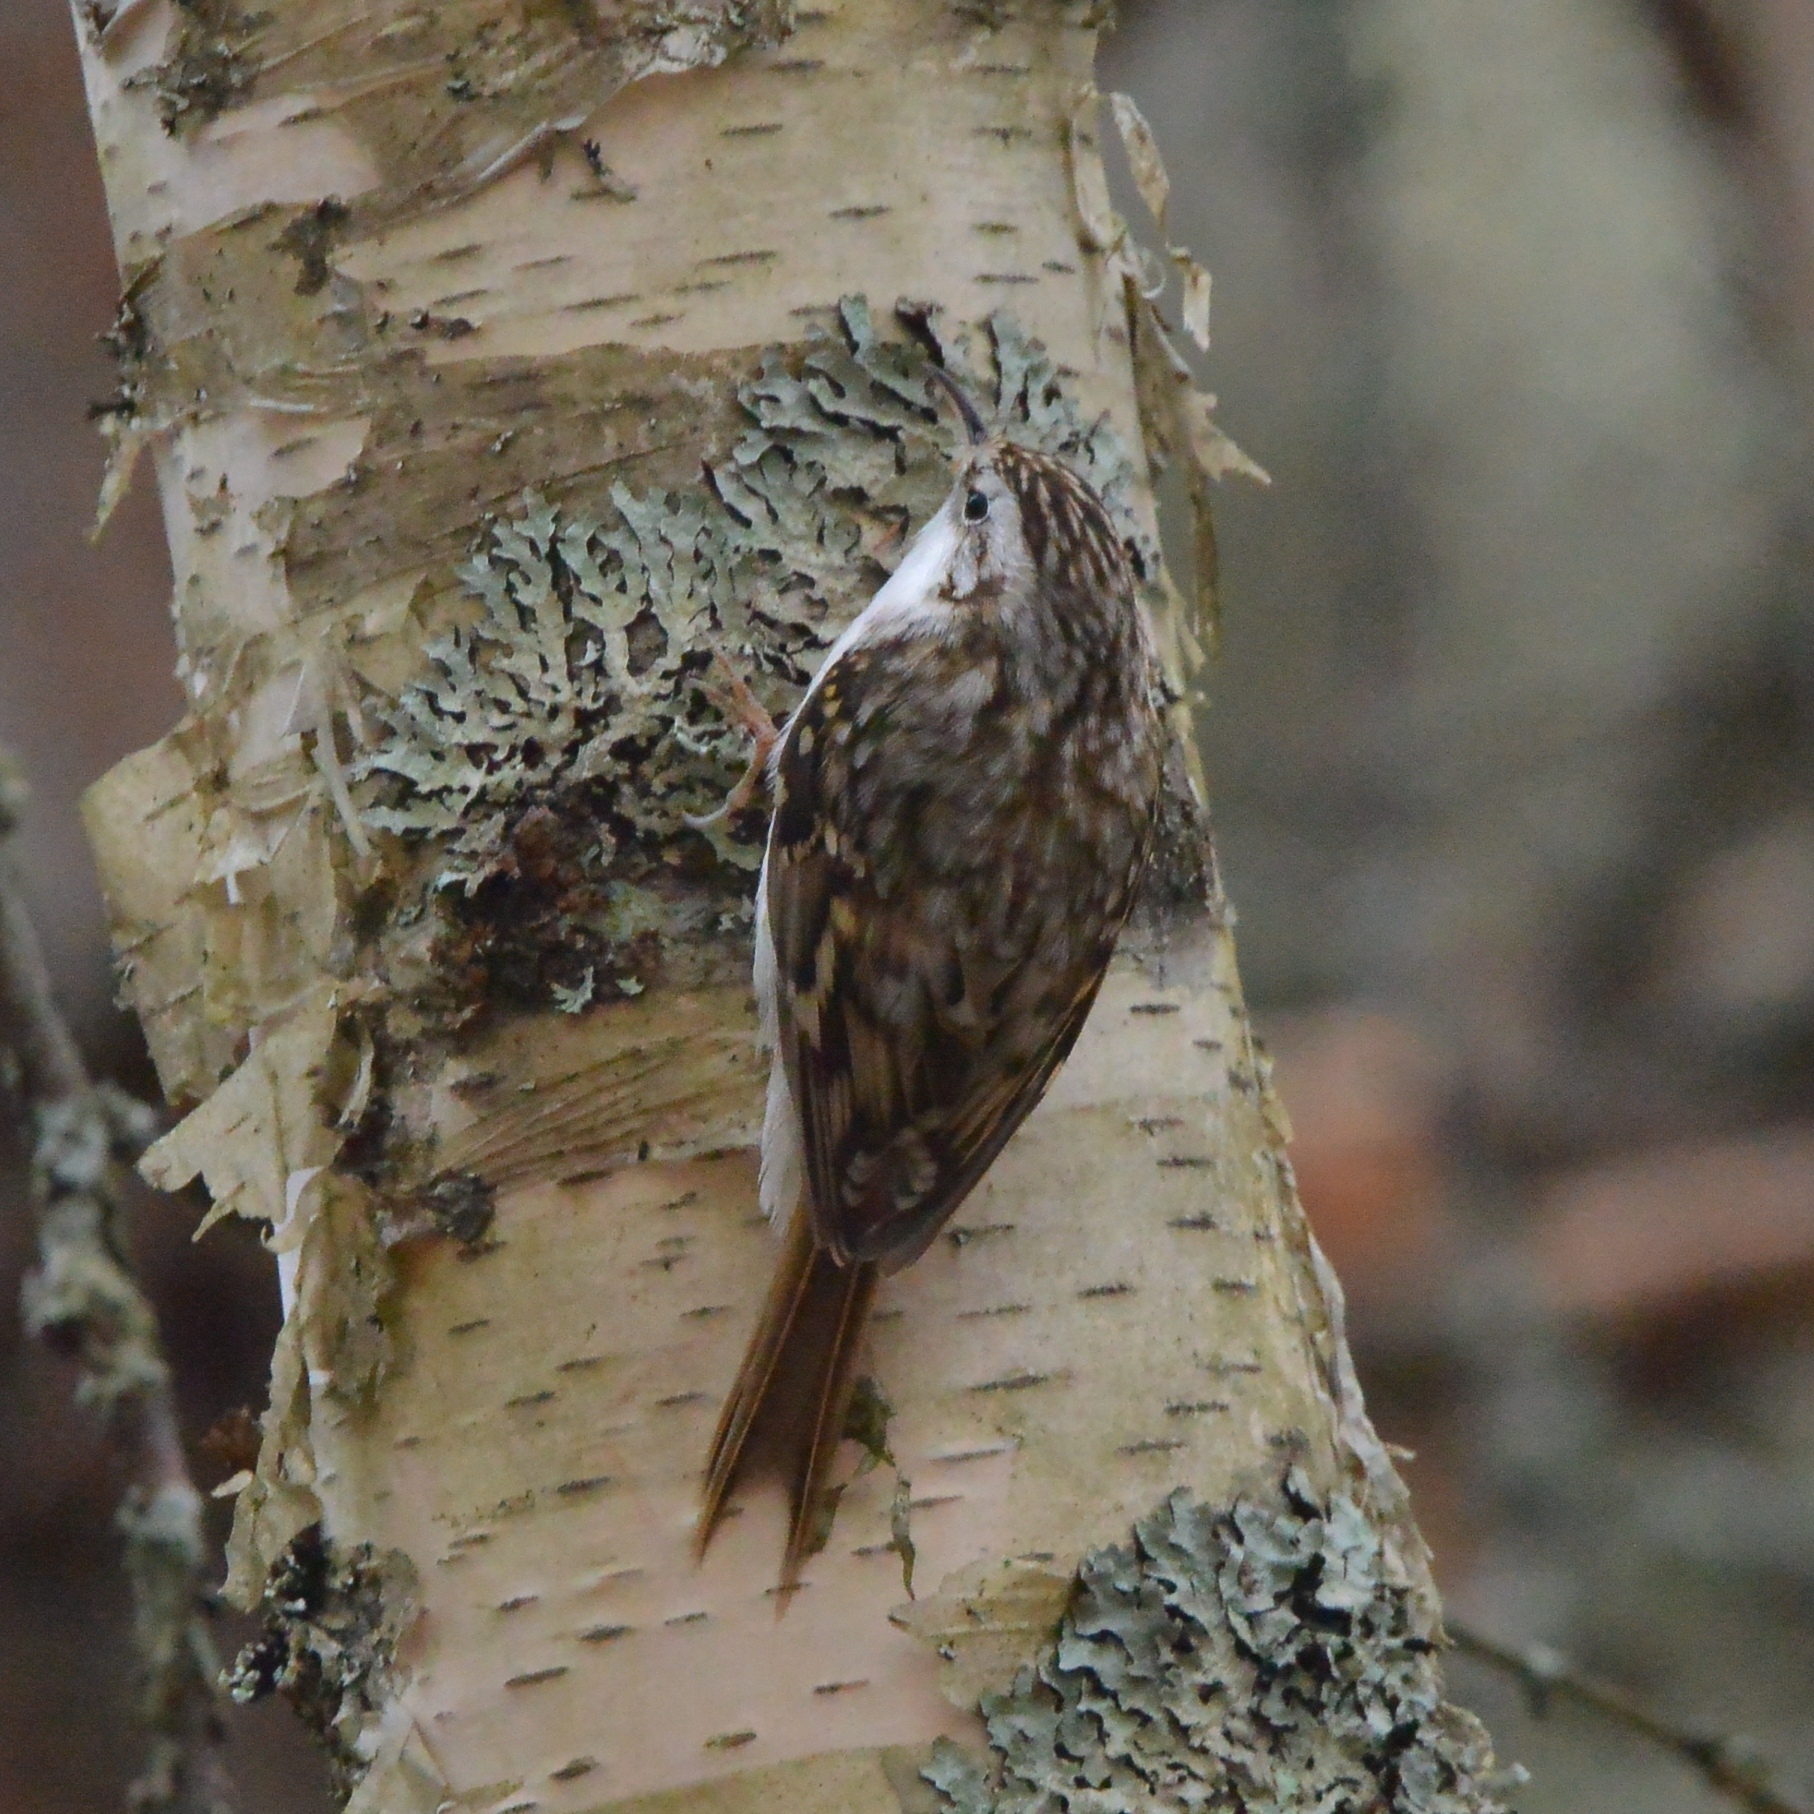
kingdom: Animalia
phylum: Chordata
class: Aves
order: Passeriformes
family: Certhiidae
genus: Certhia
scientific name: Certhia familiaris
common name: Eurasian treecreeper
